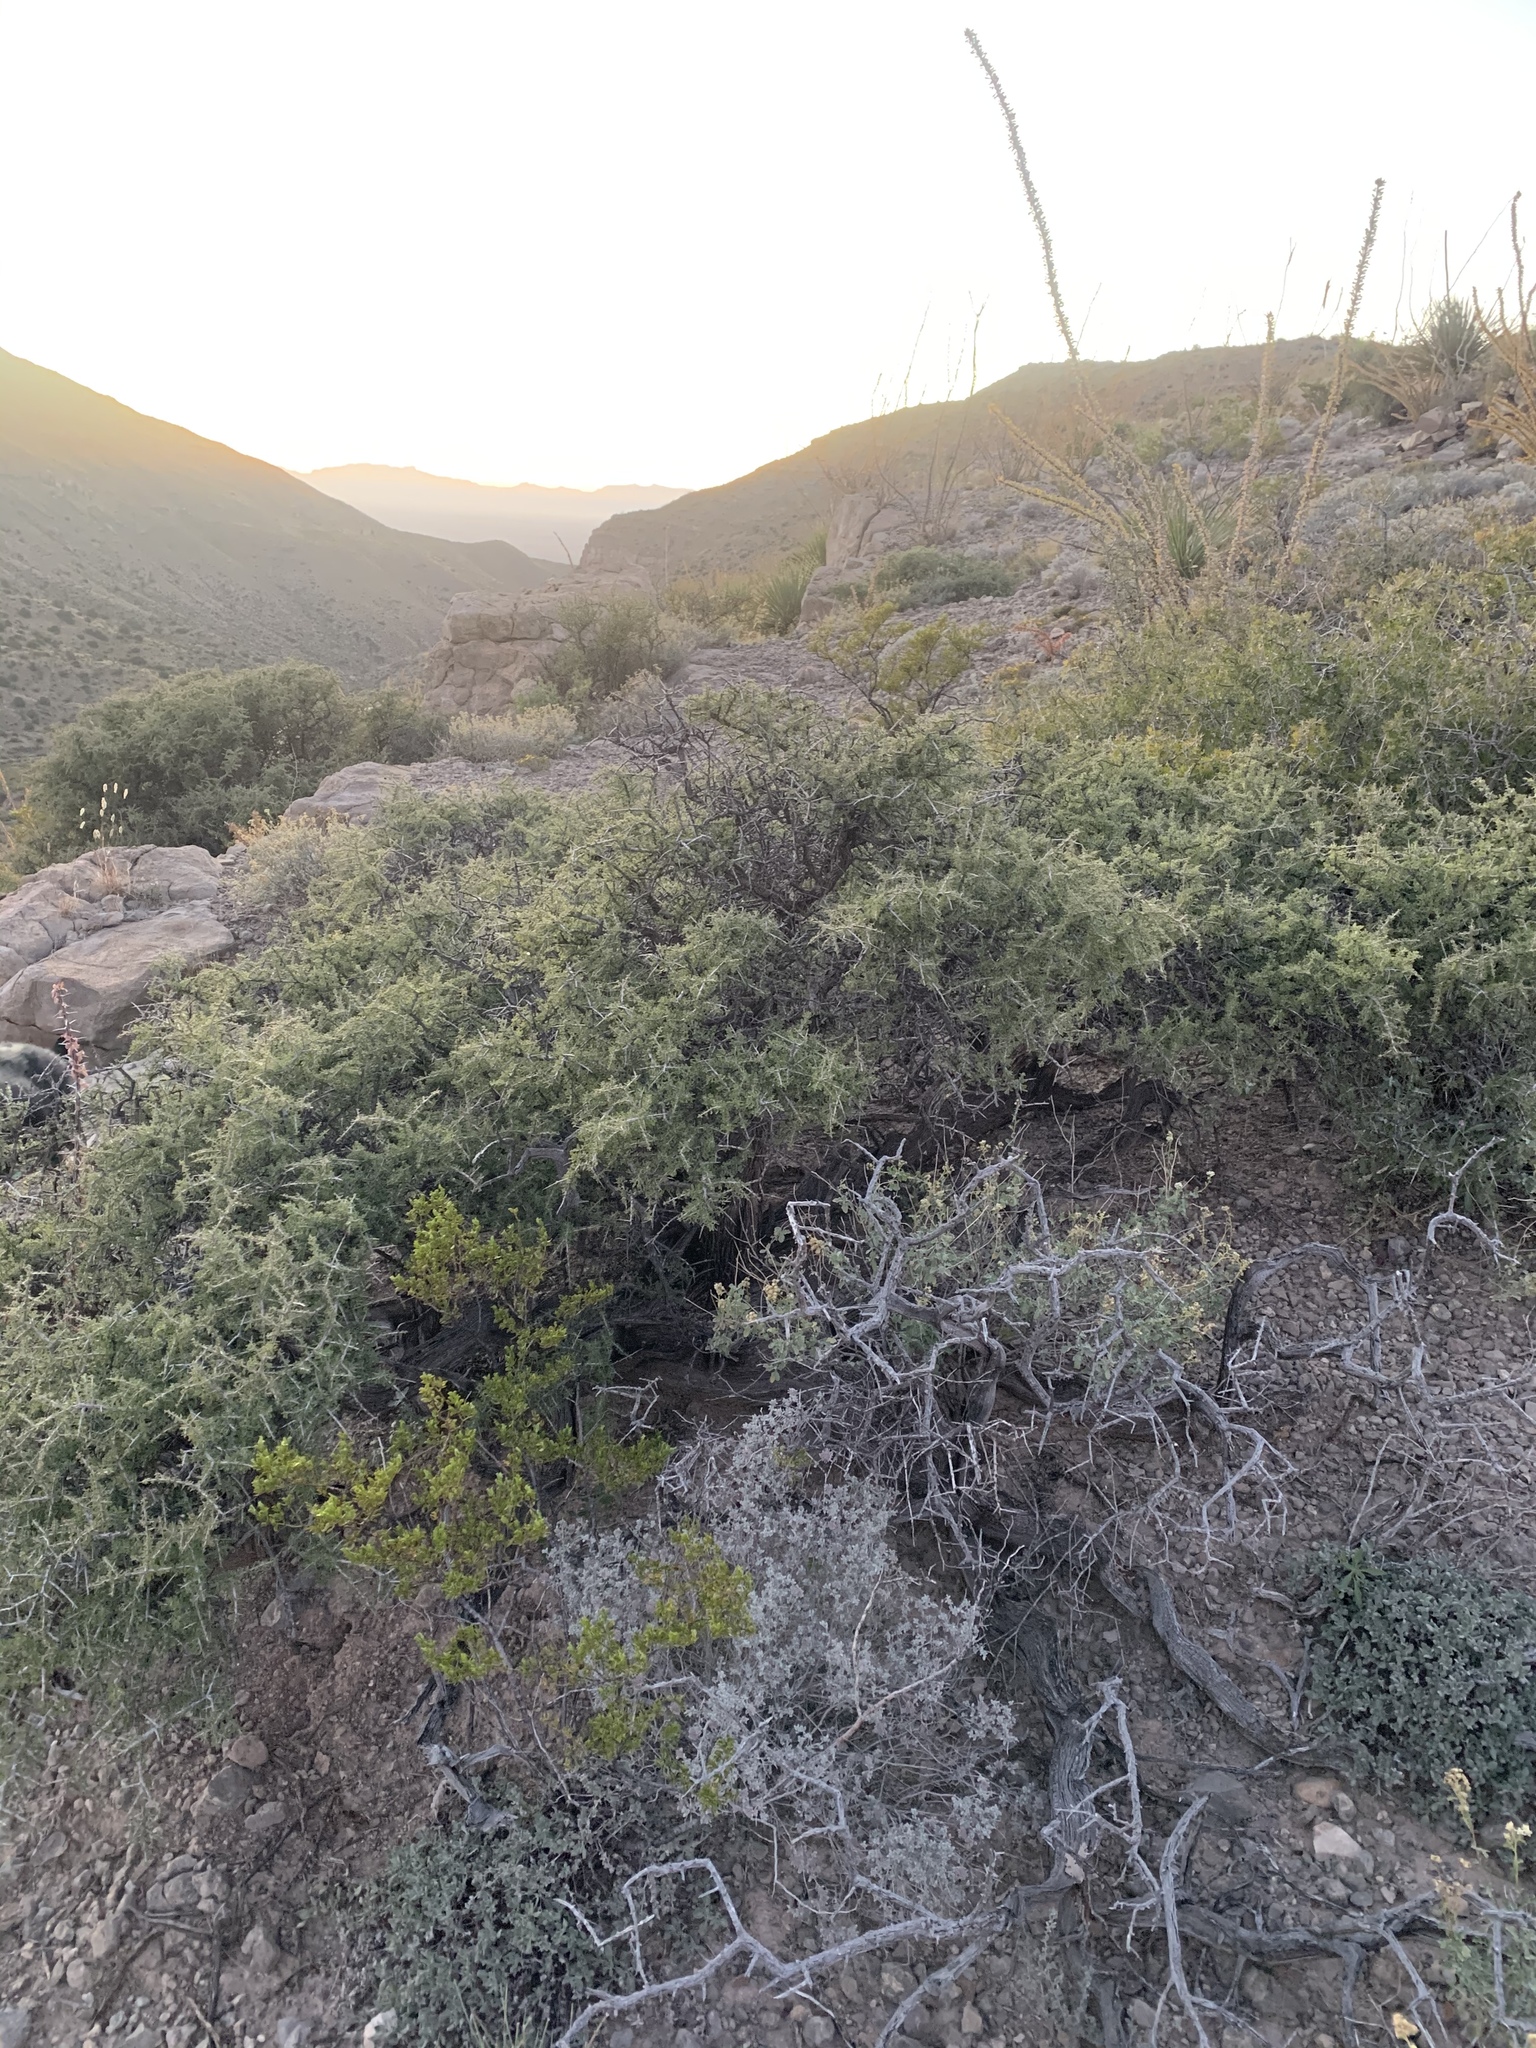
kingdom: Plantae
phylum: Tracheophyta
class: Magnoliopsida
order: Rosales
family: Rhamnaceae
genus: Condalia
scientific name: Condalia warnockii
